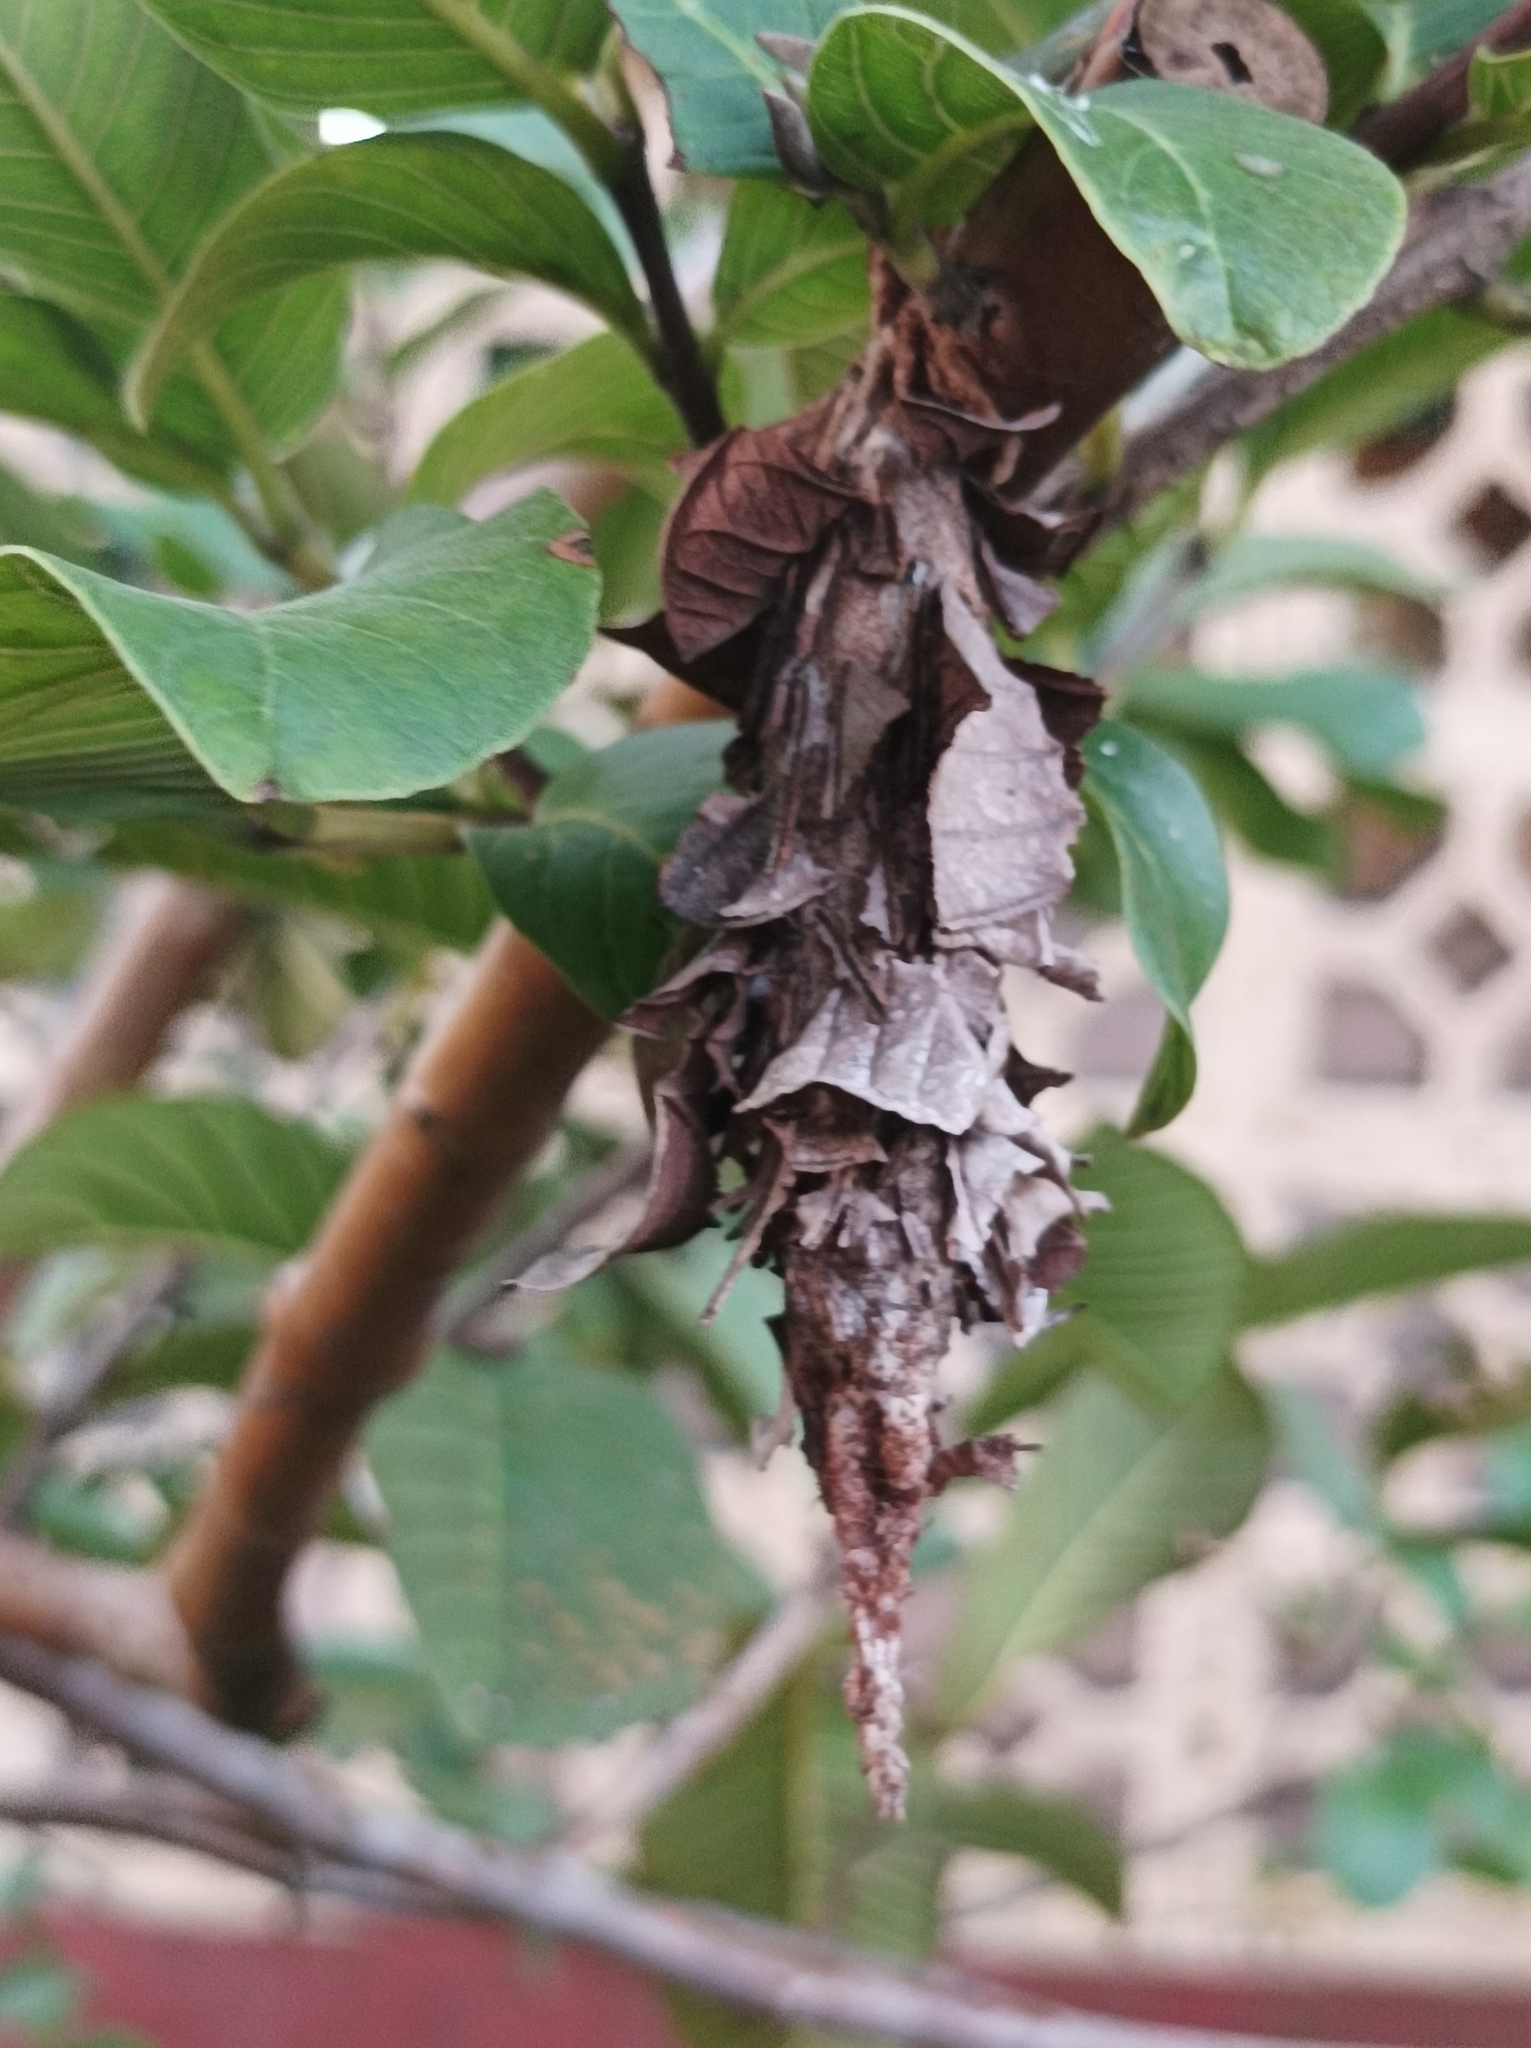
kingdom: Animalia
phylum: Arthropoda
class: Insecta
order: Lepidoptera
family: Psychidae
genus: Metura
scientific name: Metura oceanica
